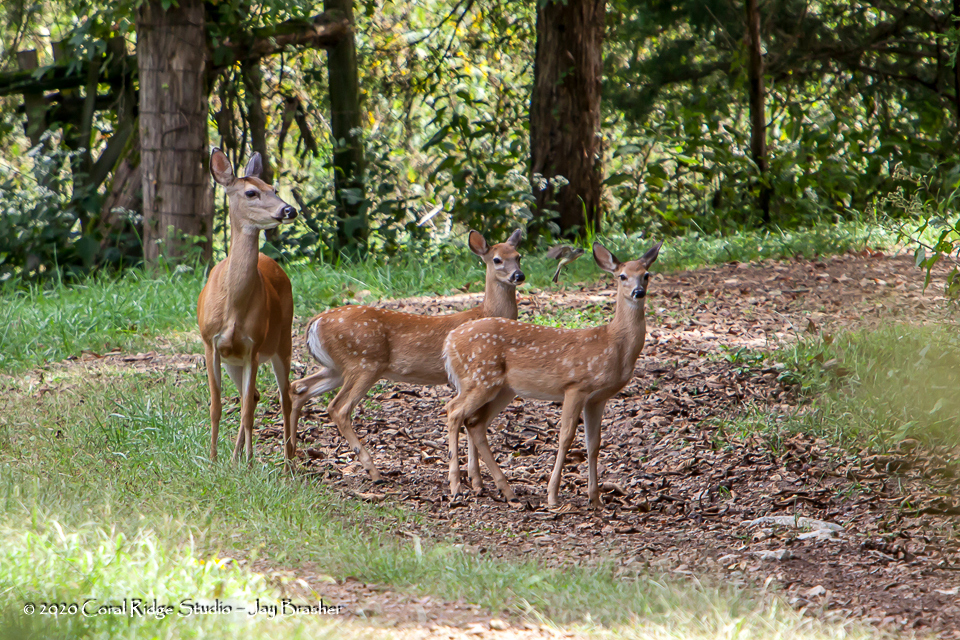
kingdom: Animalia
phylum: Chordata
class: Mammalia
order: Artiodactyla
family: Cervidae
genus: Odocoileus
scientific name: Odocoileus virginianus
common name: White-tailed deer
